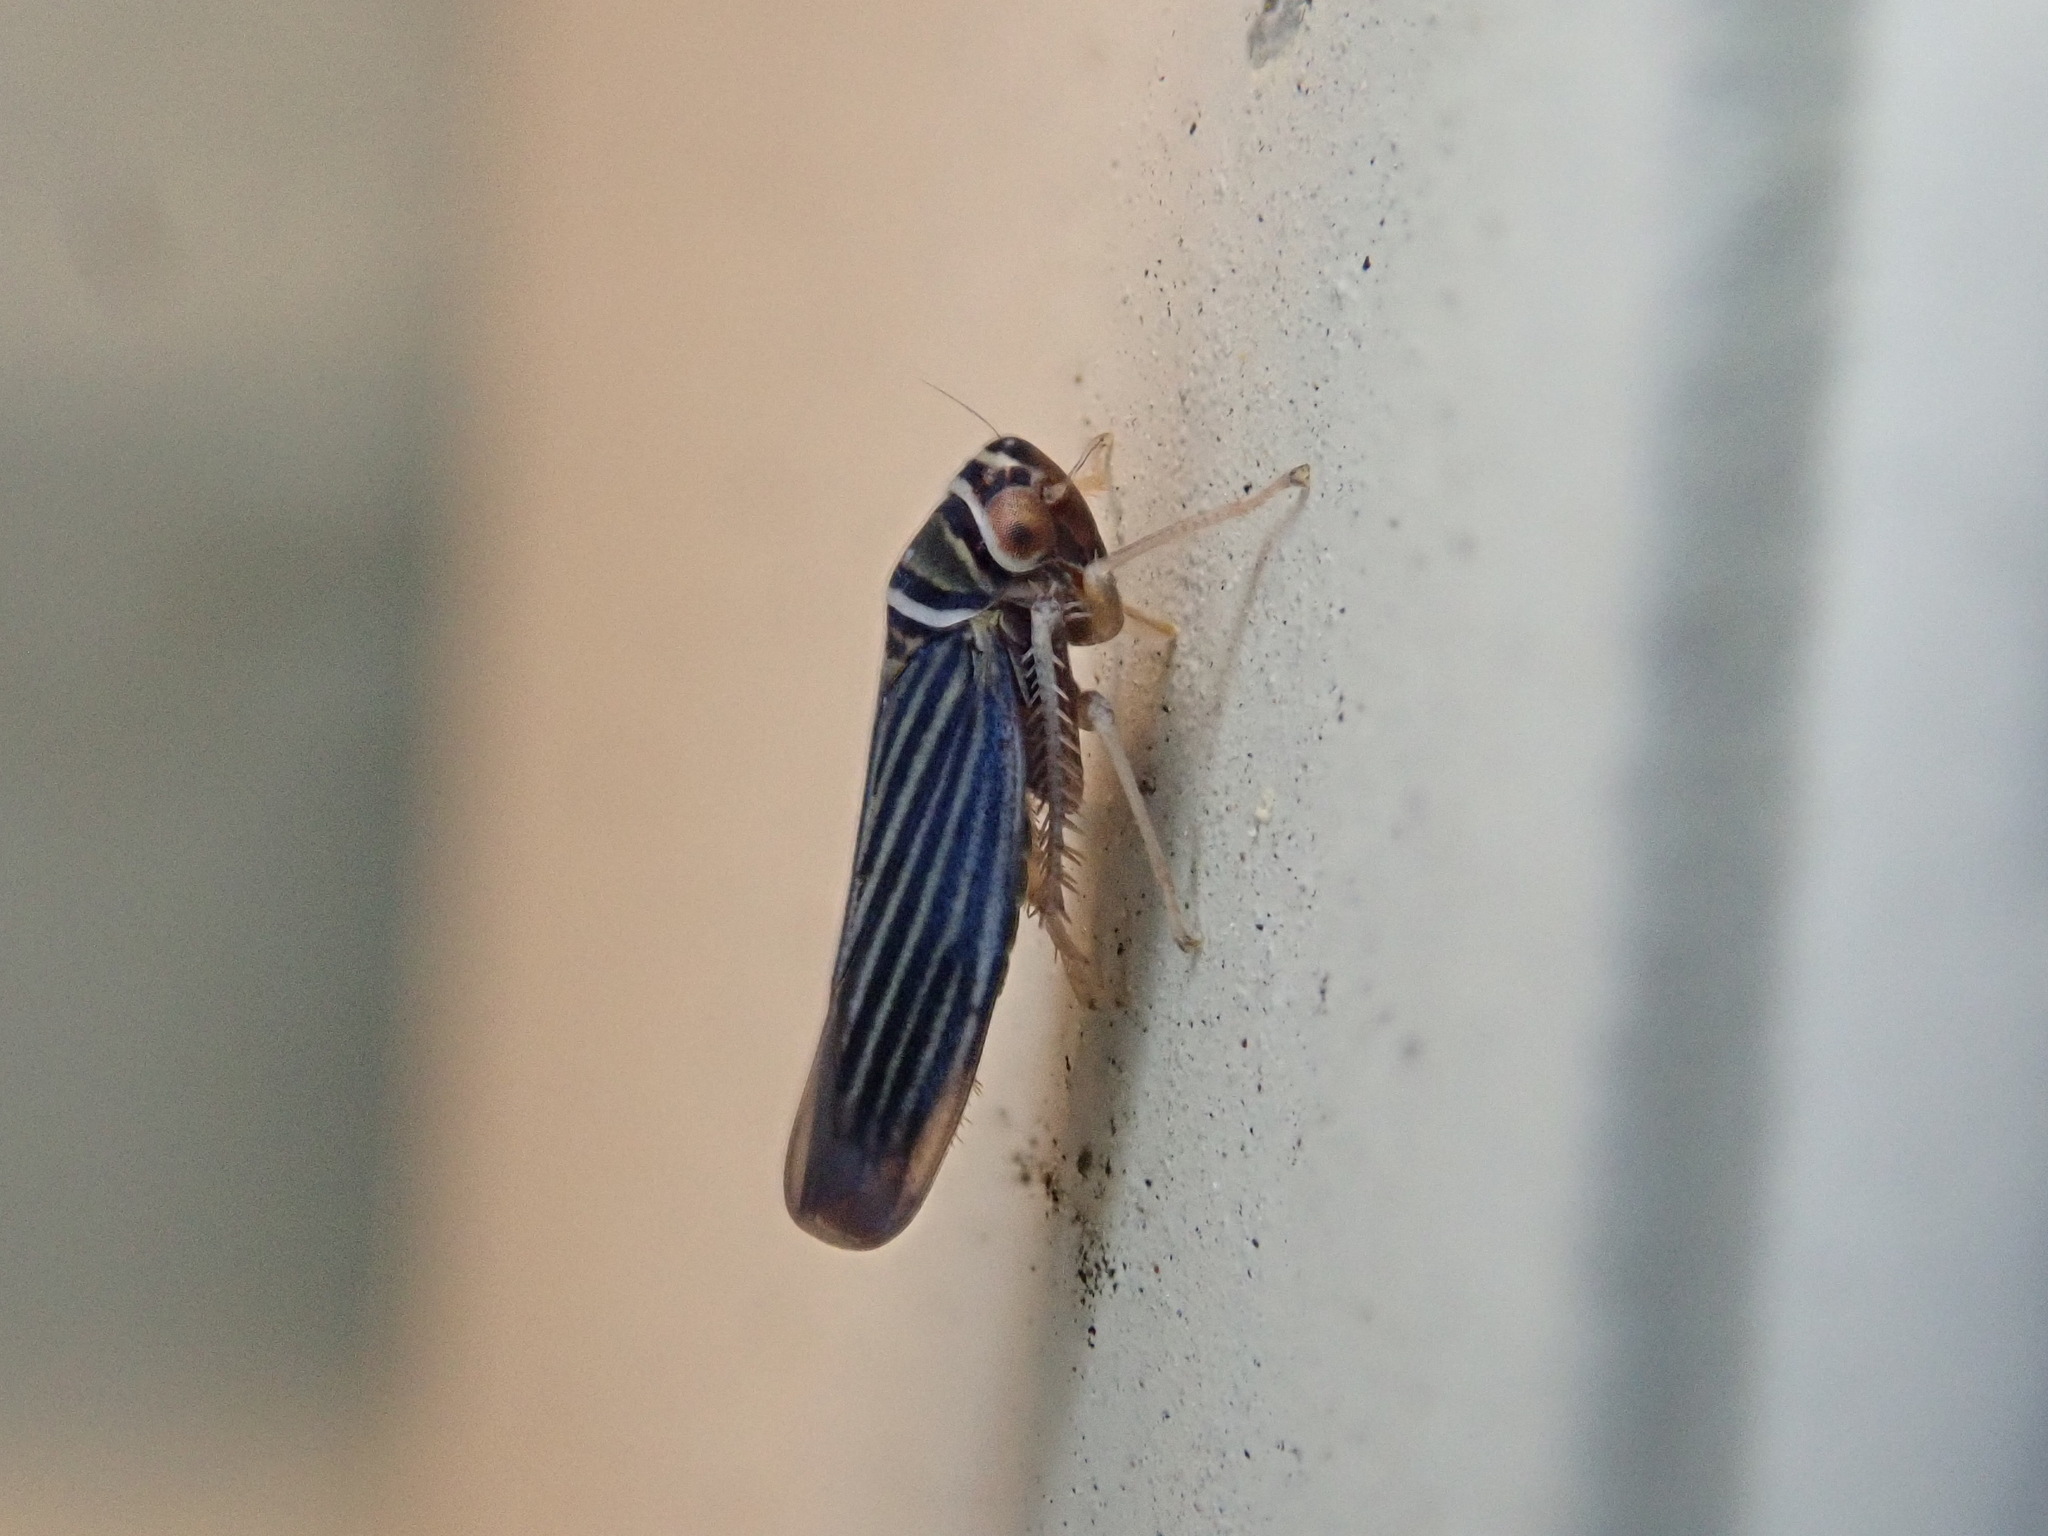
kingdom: Animalia
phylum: Arthropoda
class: Insecta
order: Hemiptera
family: Cicadellidae
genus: Tylozygus
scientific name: Tylozygus bifidus
